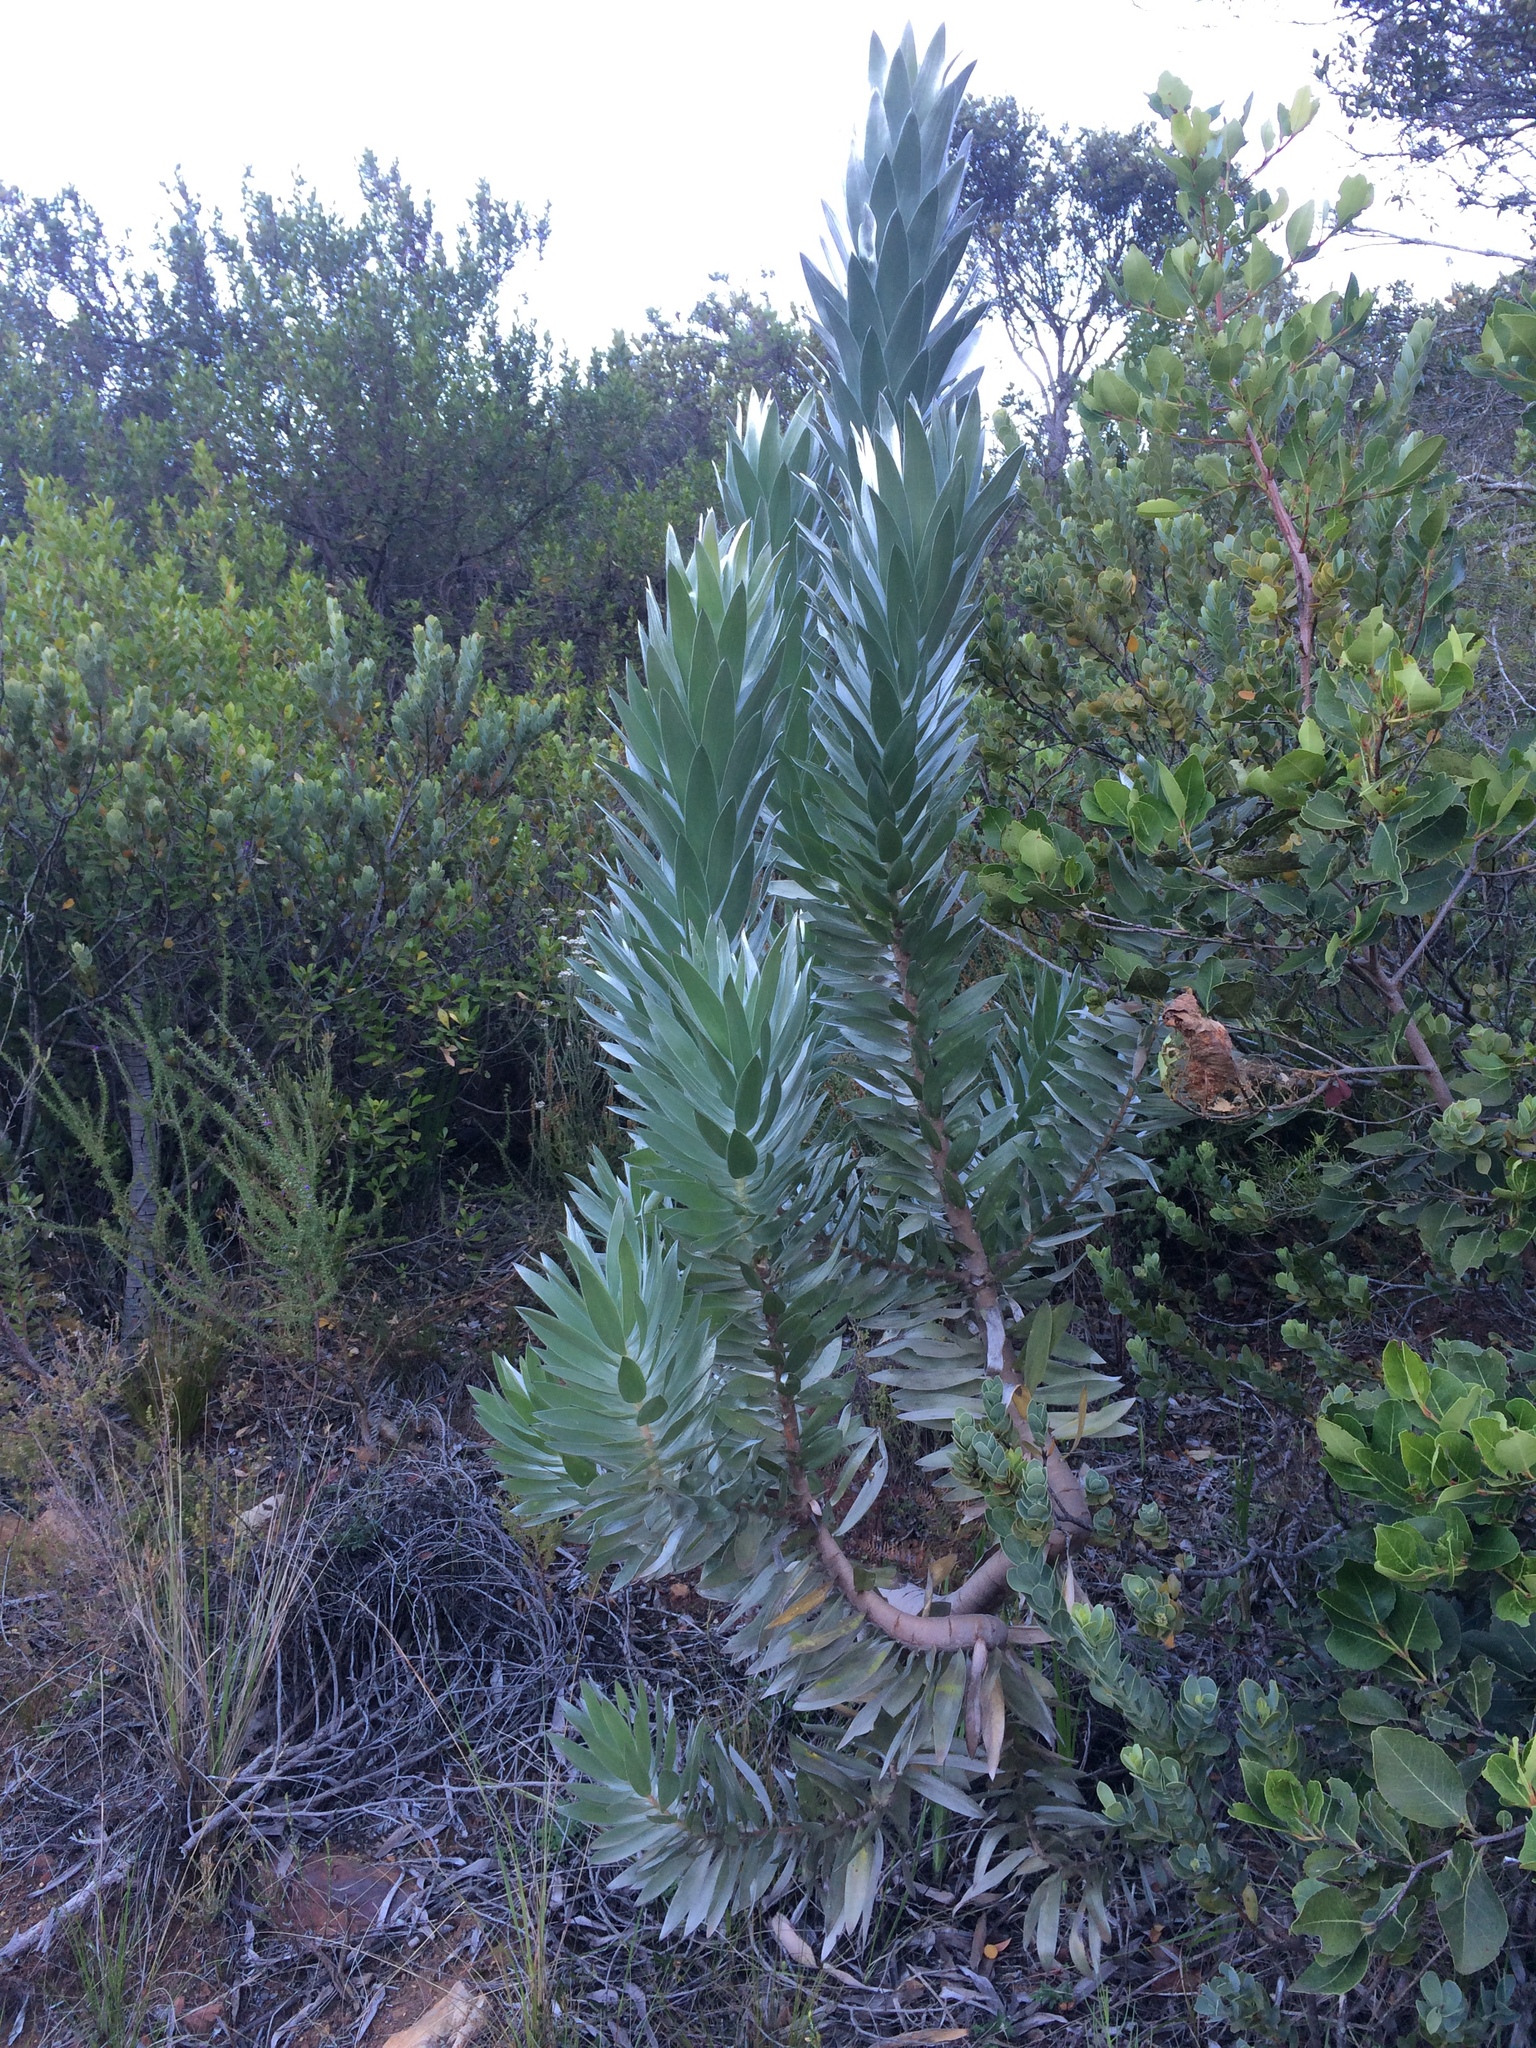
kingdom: Plantae
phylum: Tracheophyta
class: Magnoliopsida
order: Proteales
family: Proteaceae
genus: Leucadendron
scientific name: Leucadendron argenteum
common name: Cape silver tree
